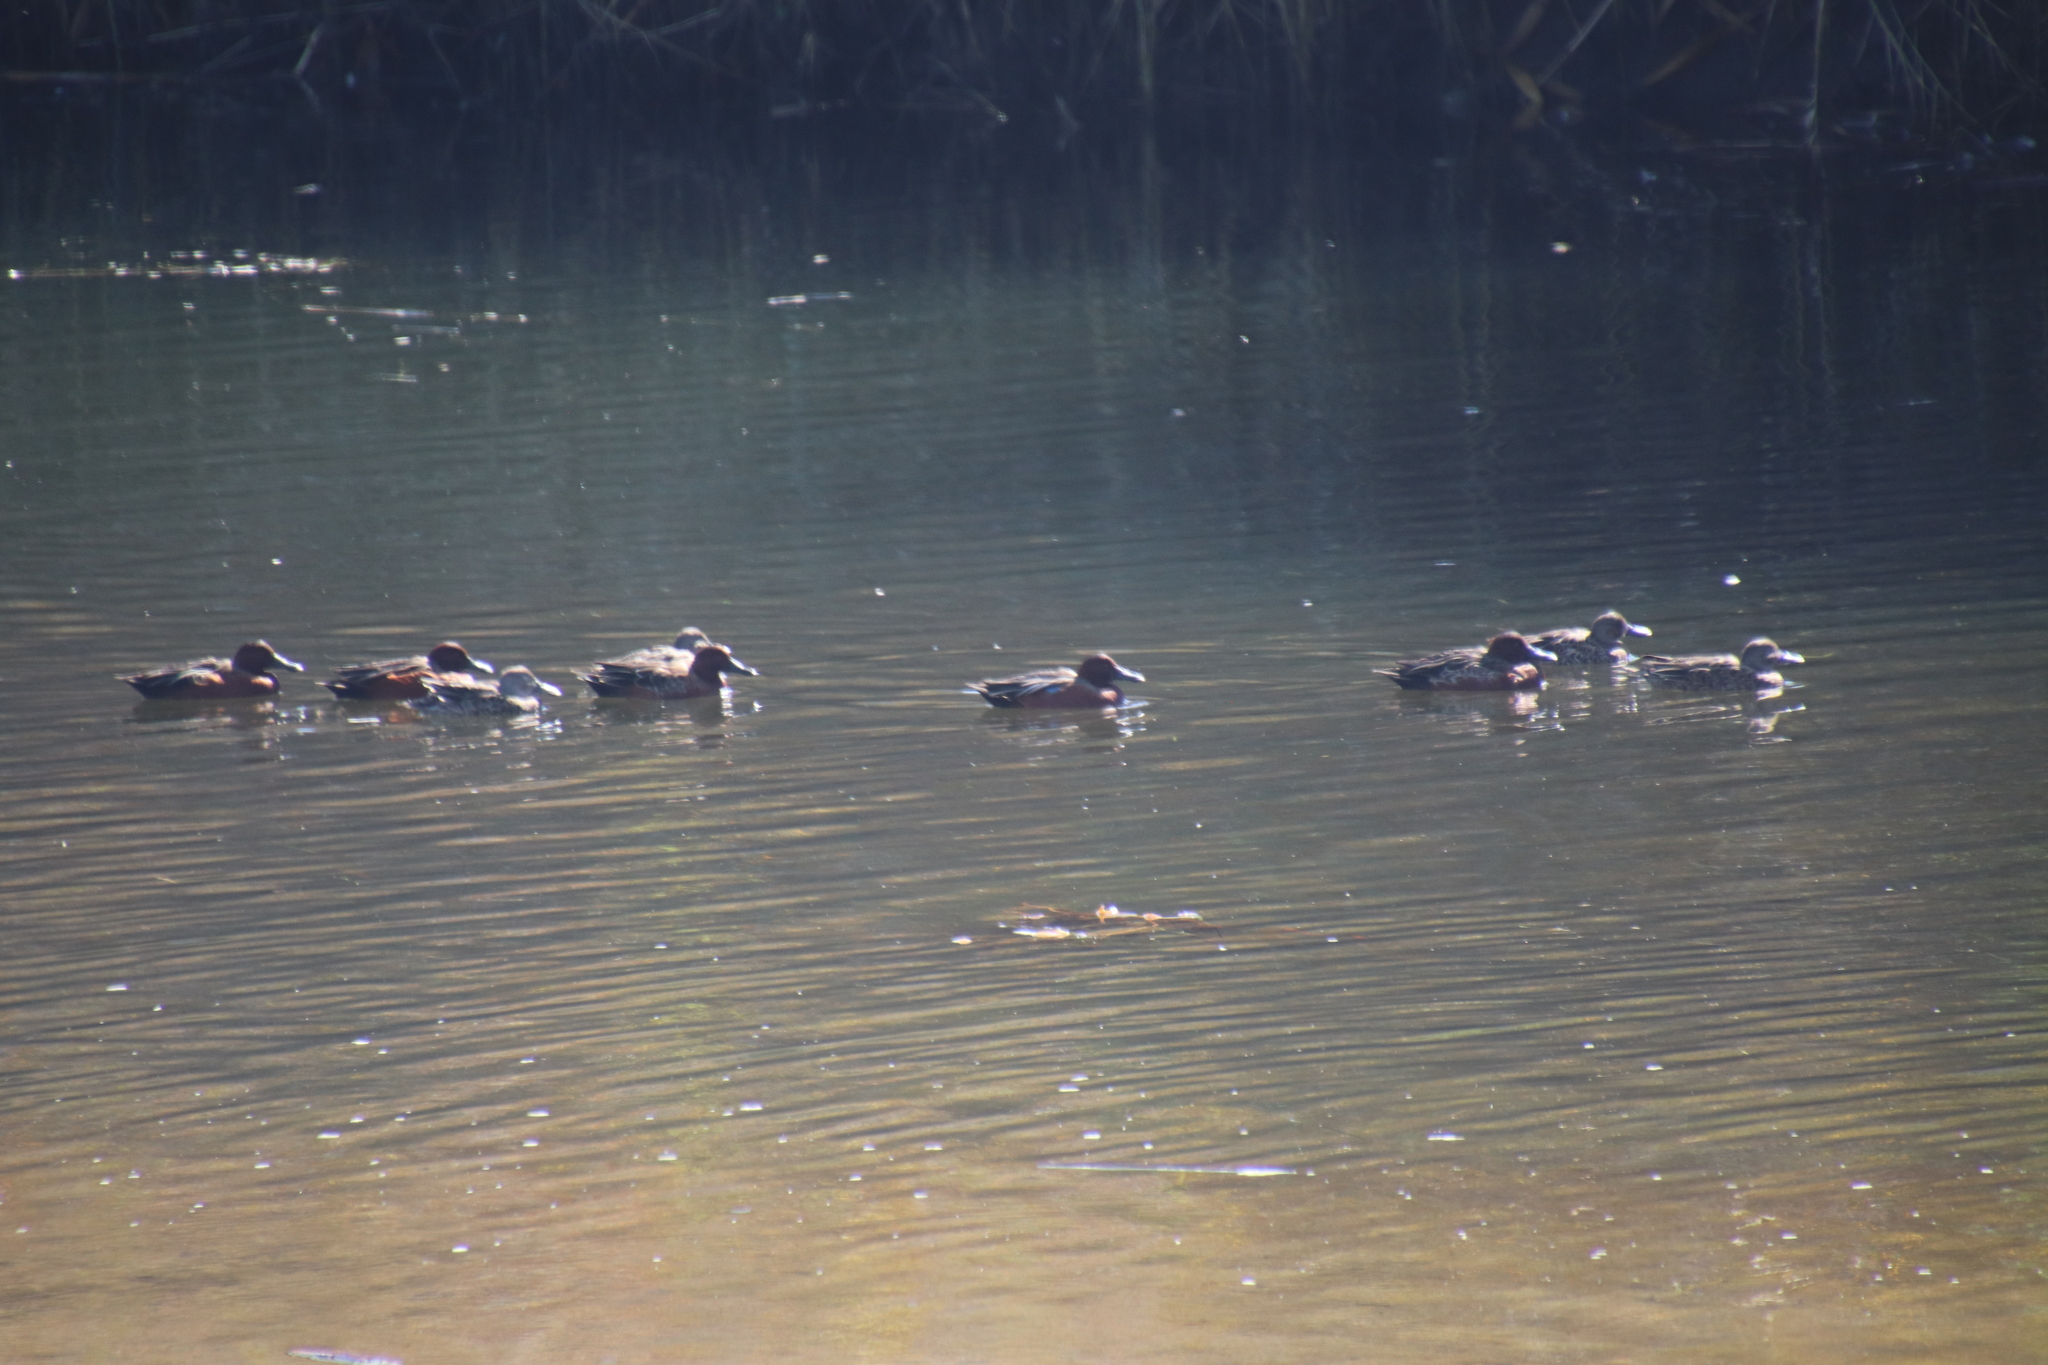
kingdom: Animalia
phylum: Chordata
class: Aves
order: Anseriformes
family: Anatidae
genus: Spatula
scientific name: Spatula cyanoptera
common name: Cinnamon teal
